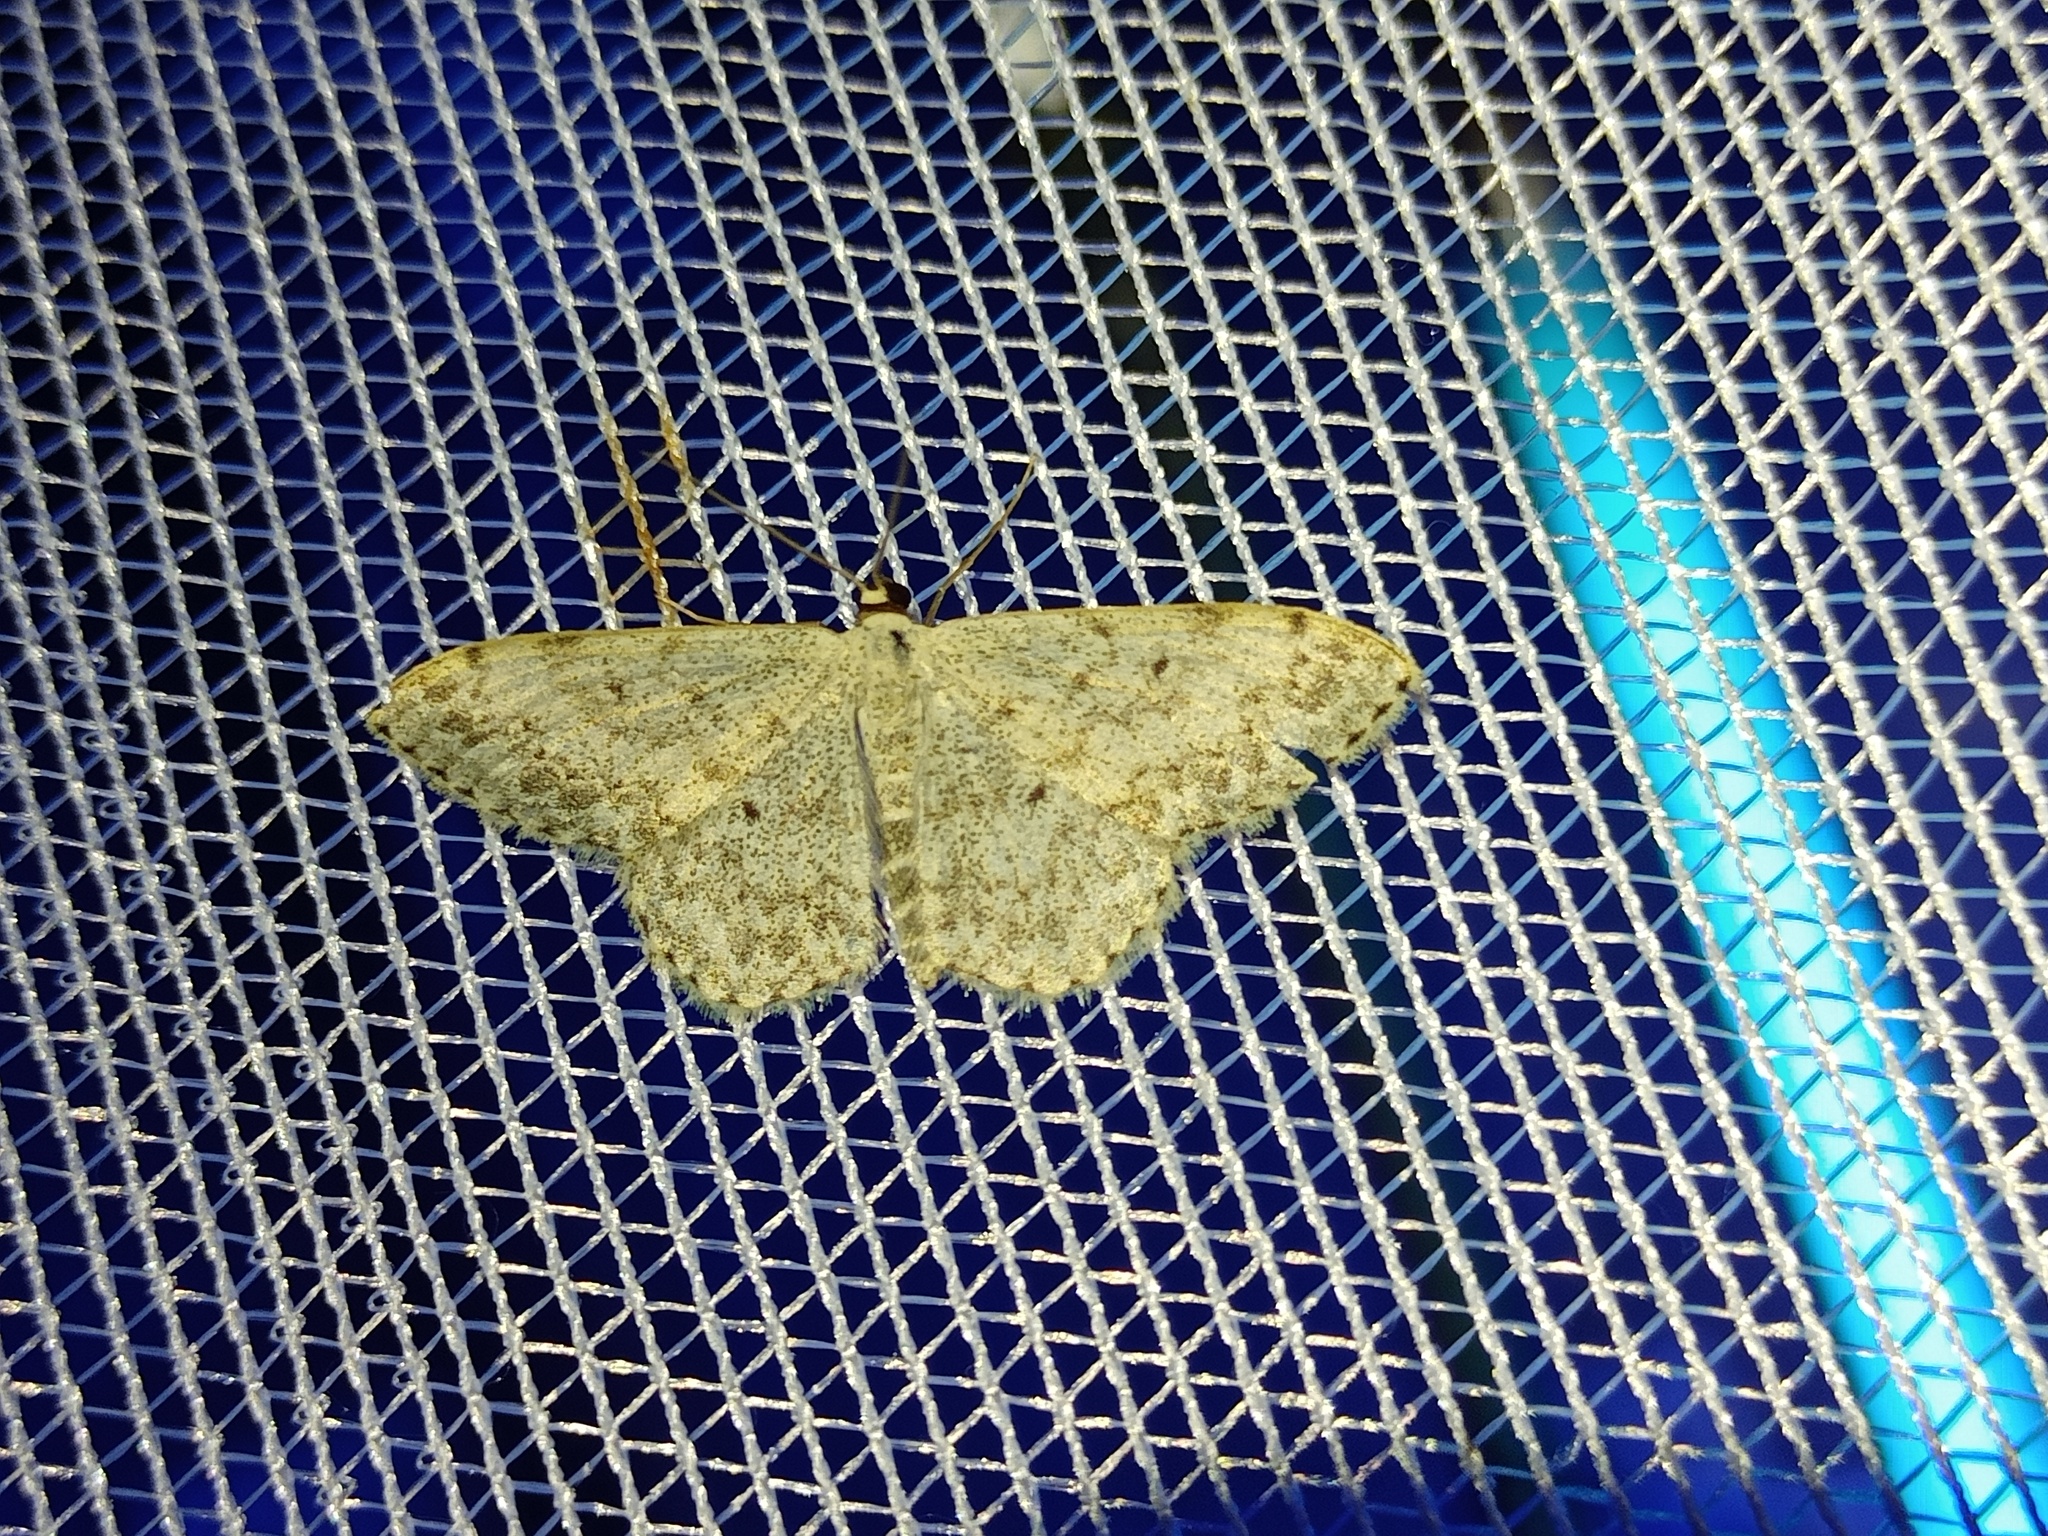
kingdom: Animalia
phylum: Arthropoda
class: Insecta
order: Lepidoptera
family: Geometridae
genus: Scopula
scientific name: Scopula marginepunctata
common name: Mullein wave
